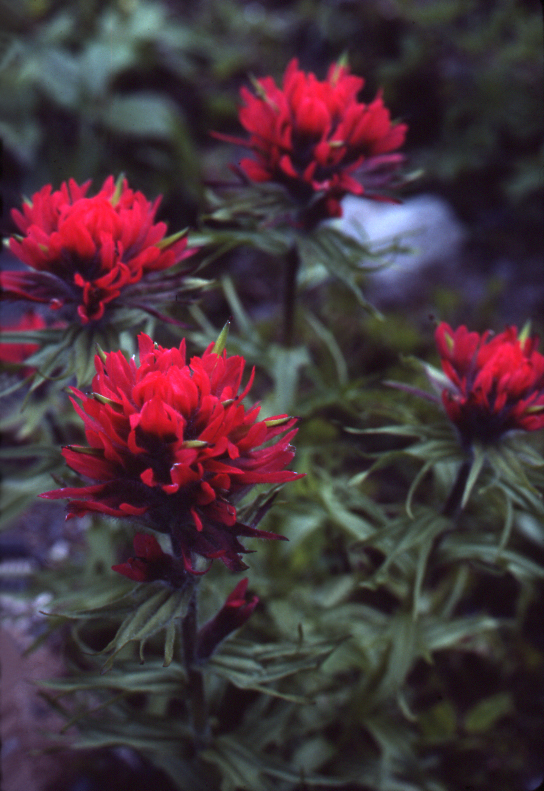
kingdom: Plantae
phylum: Tracheophyta
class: Magnoliopsida
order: Lamiales
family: Orobanchaceae
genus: Castilleja
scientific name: Castilleja parviflora
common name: Mountain paintbrush
